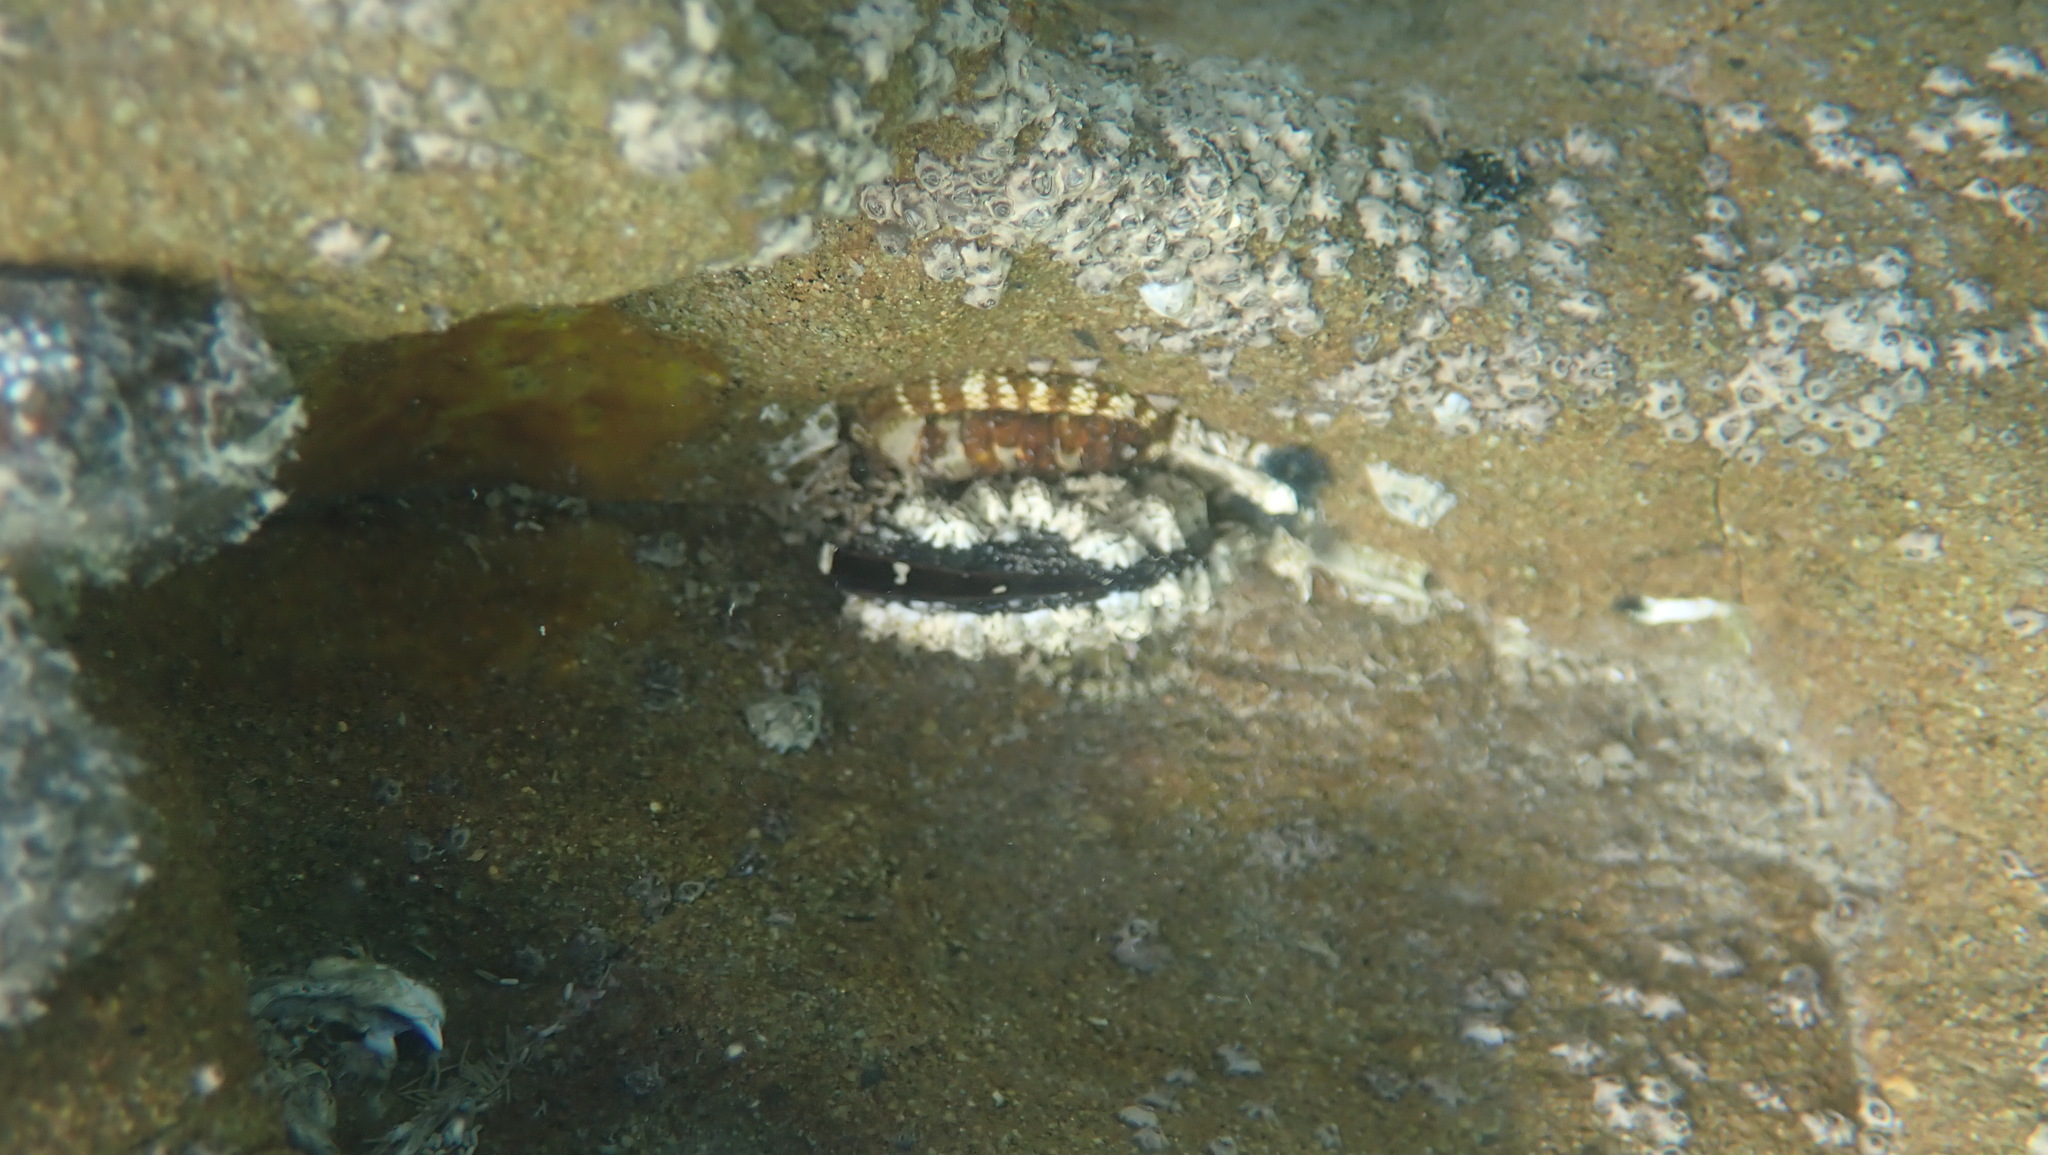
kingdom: Animalia
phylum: Mollusca
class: Polyplacophora
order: Chitonida
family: Chitonidae
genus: Sypharochiton
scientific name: Sypharochiton pelliserpentis
